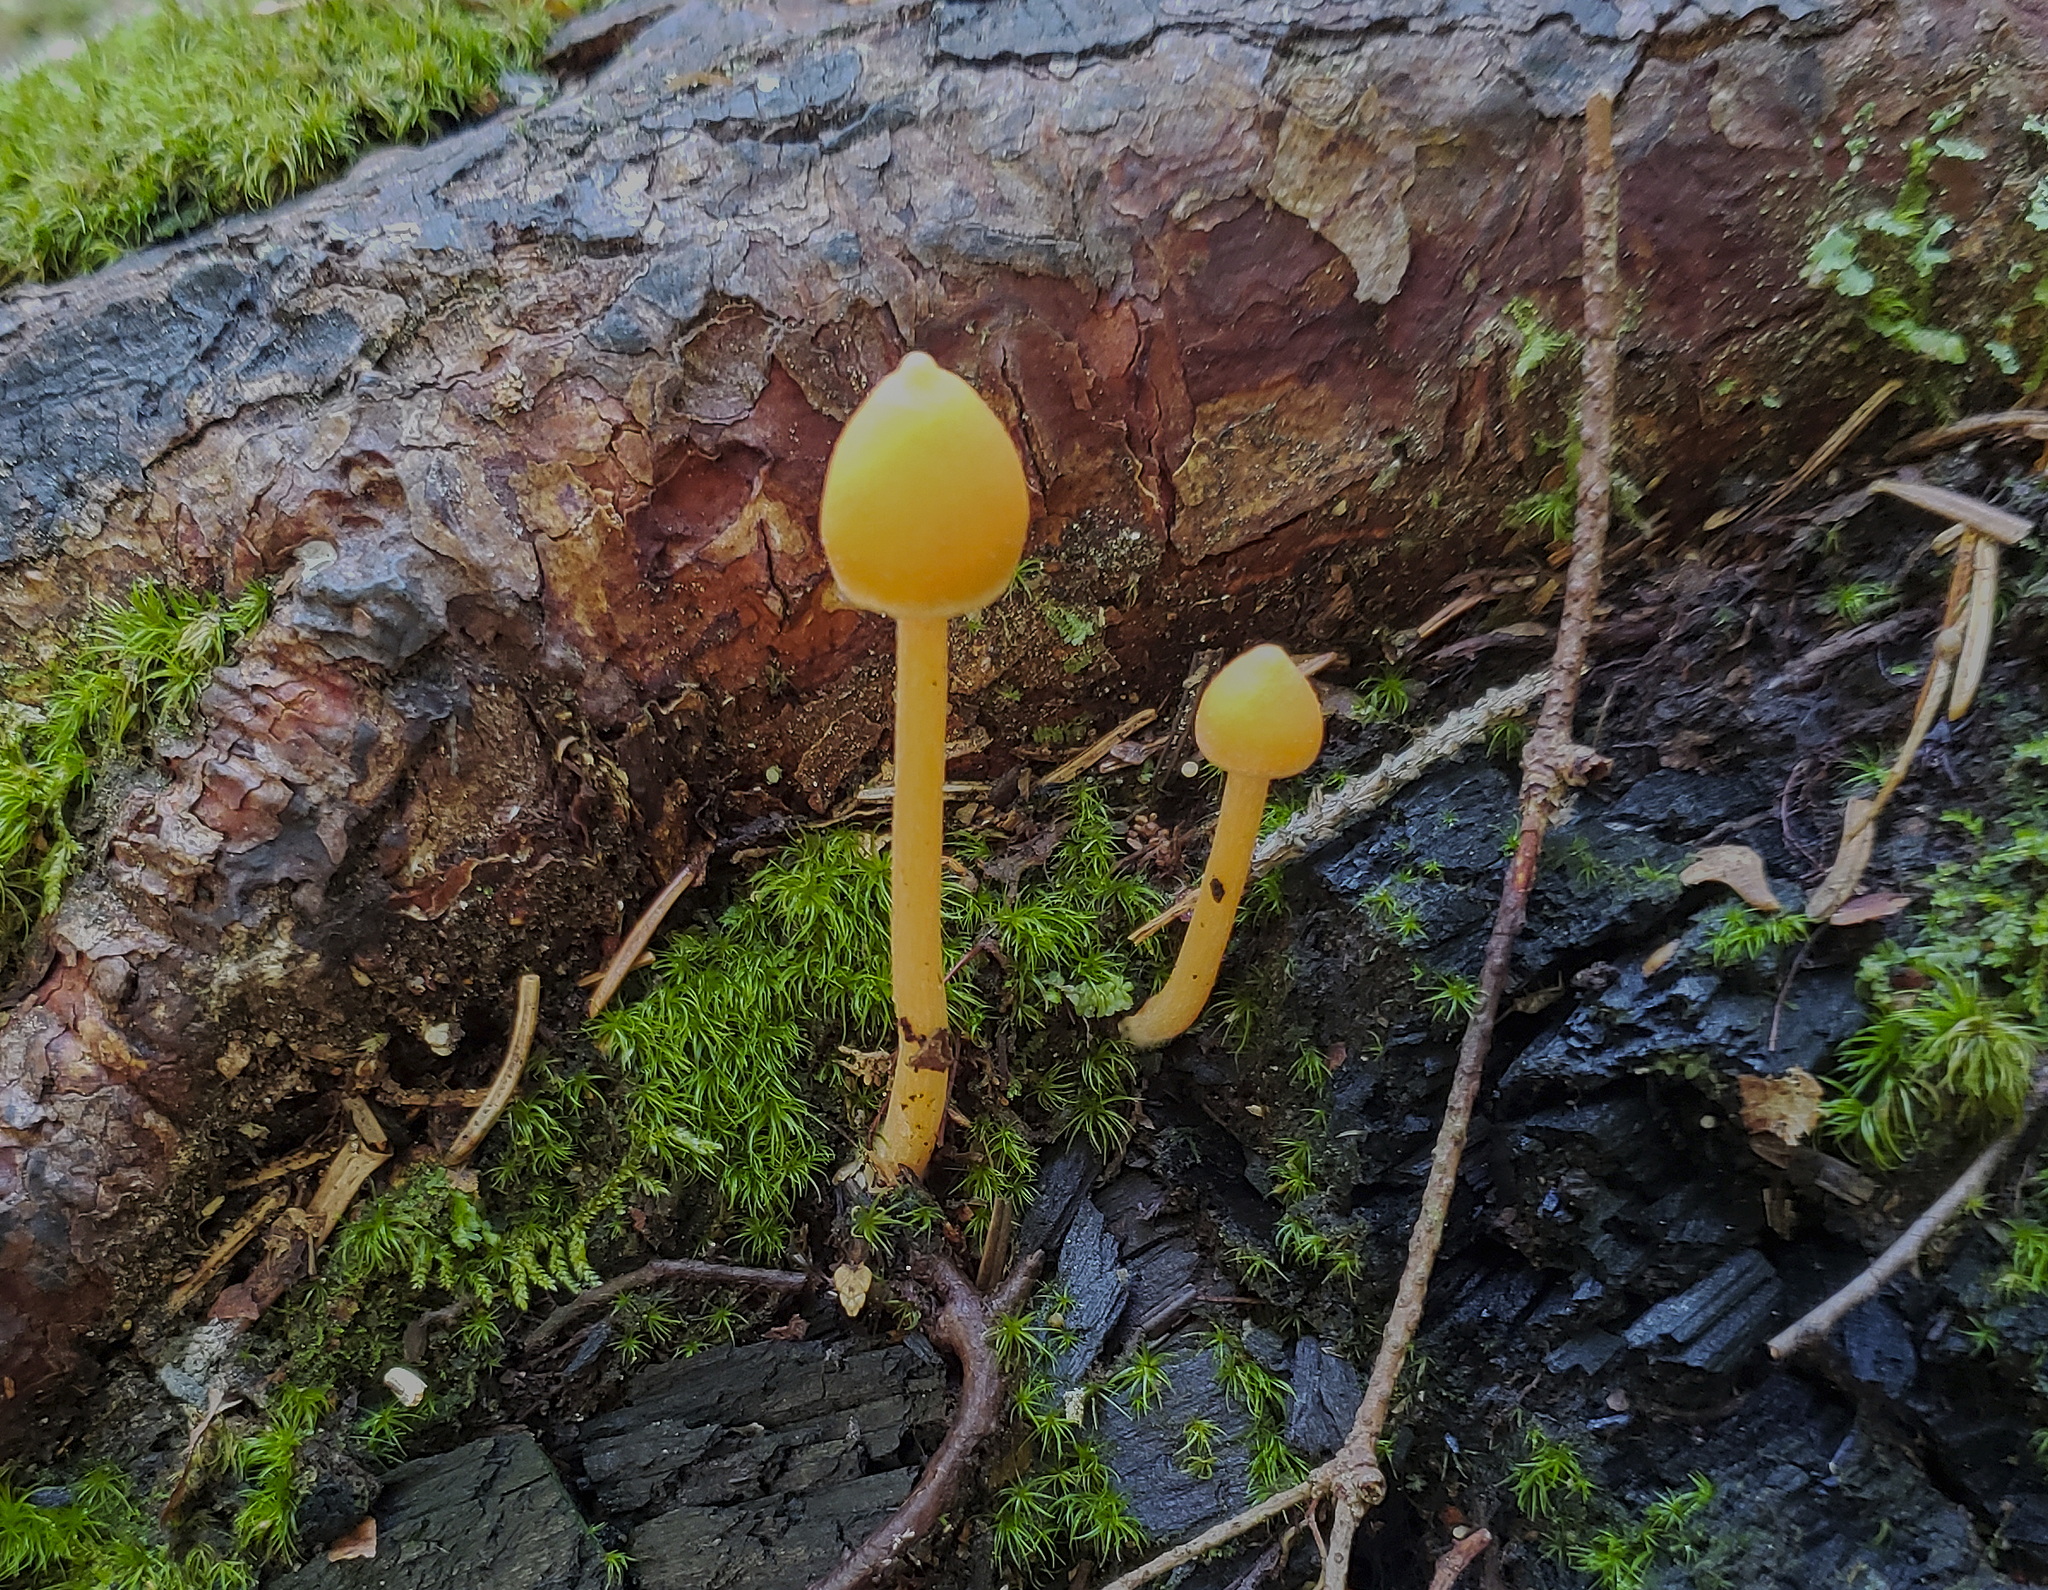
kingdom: Fungi
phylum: Basidiomycota
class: Agaricomycetes
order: Agaricales
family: Entolomataceae
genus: Entoloma
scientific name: Entoloma quadratum
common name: Salmon pinkgill
